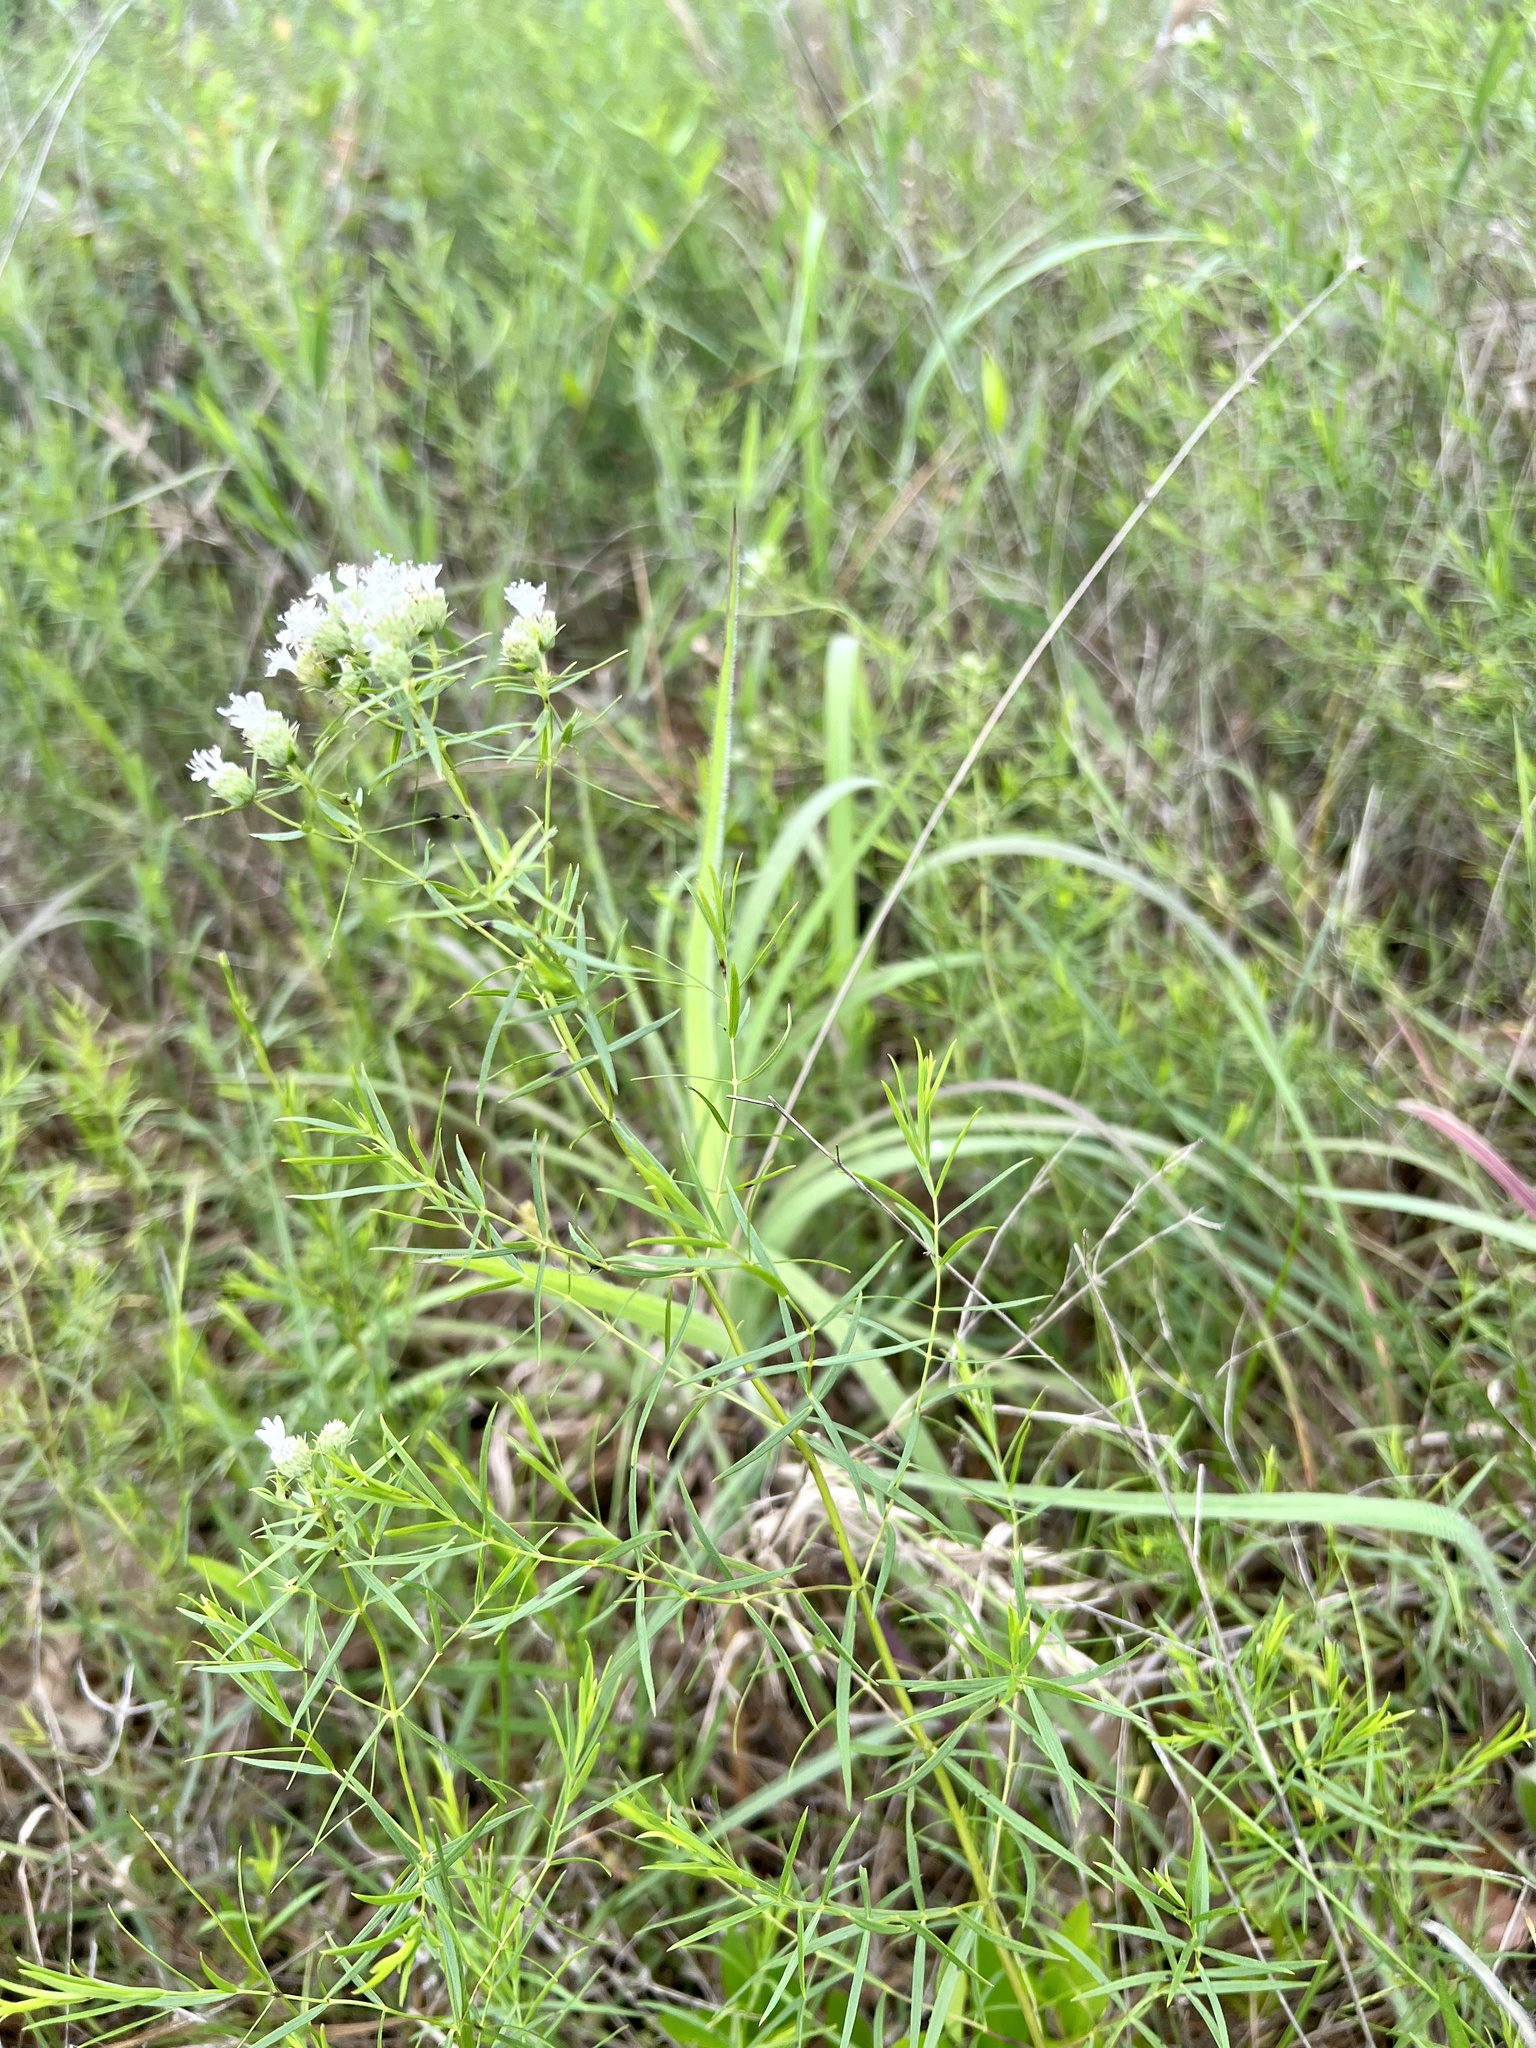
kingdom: Plantae
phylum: Tracheophyta
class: Magnoliopsida
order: Lamiales
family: Lamiaceae
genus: Pycnanthemum
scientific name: Pycnanthemum tenuifolium
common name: Narrow-leaf mountain-mint
